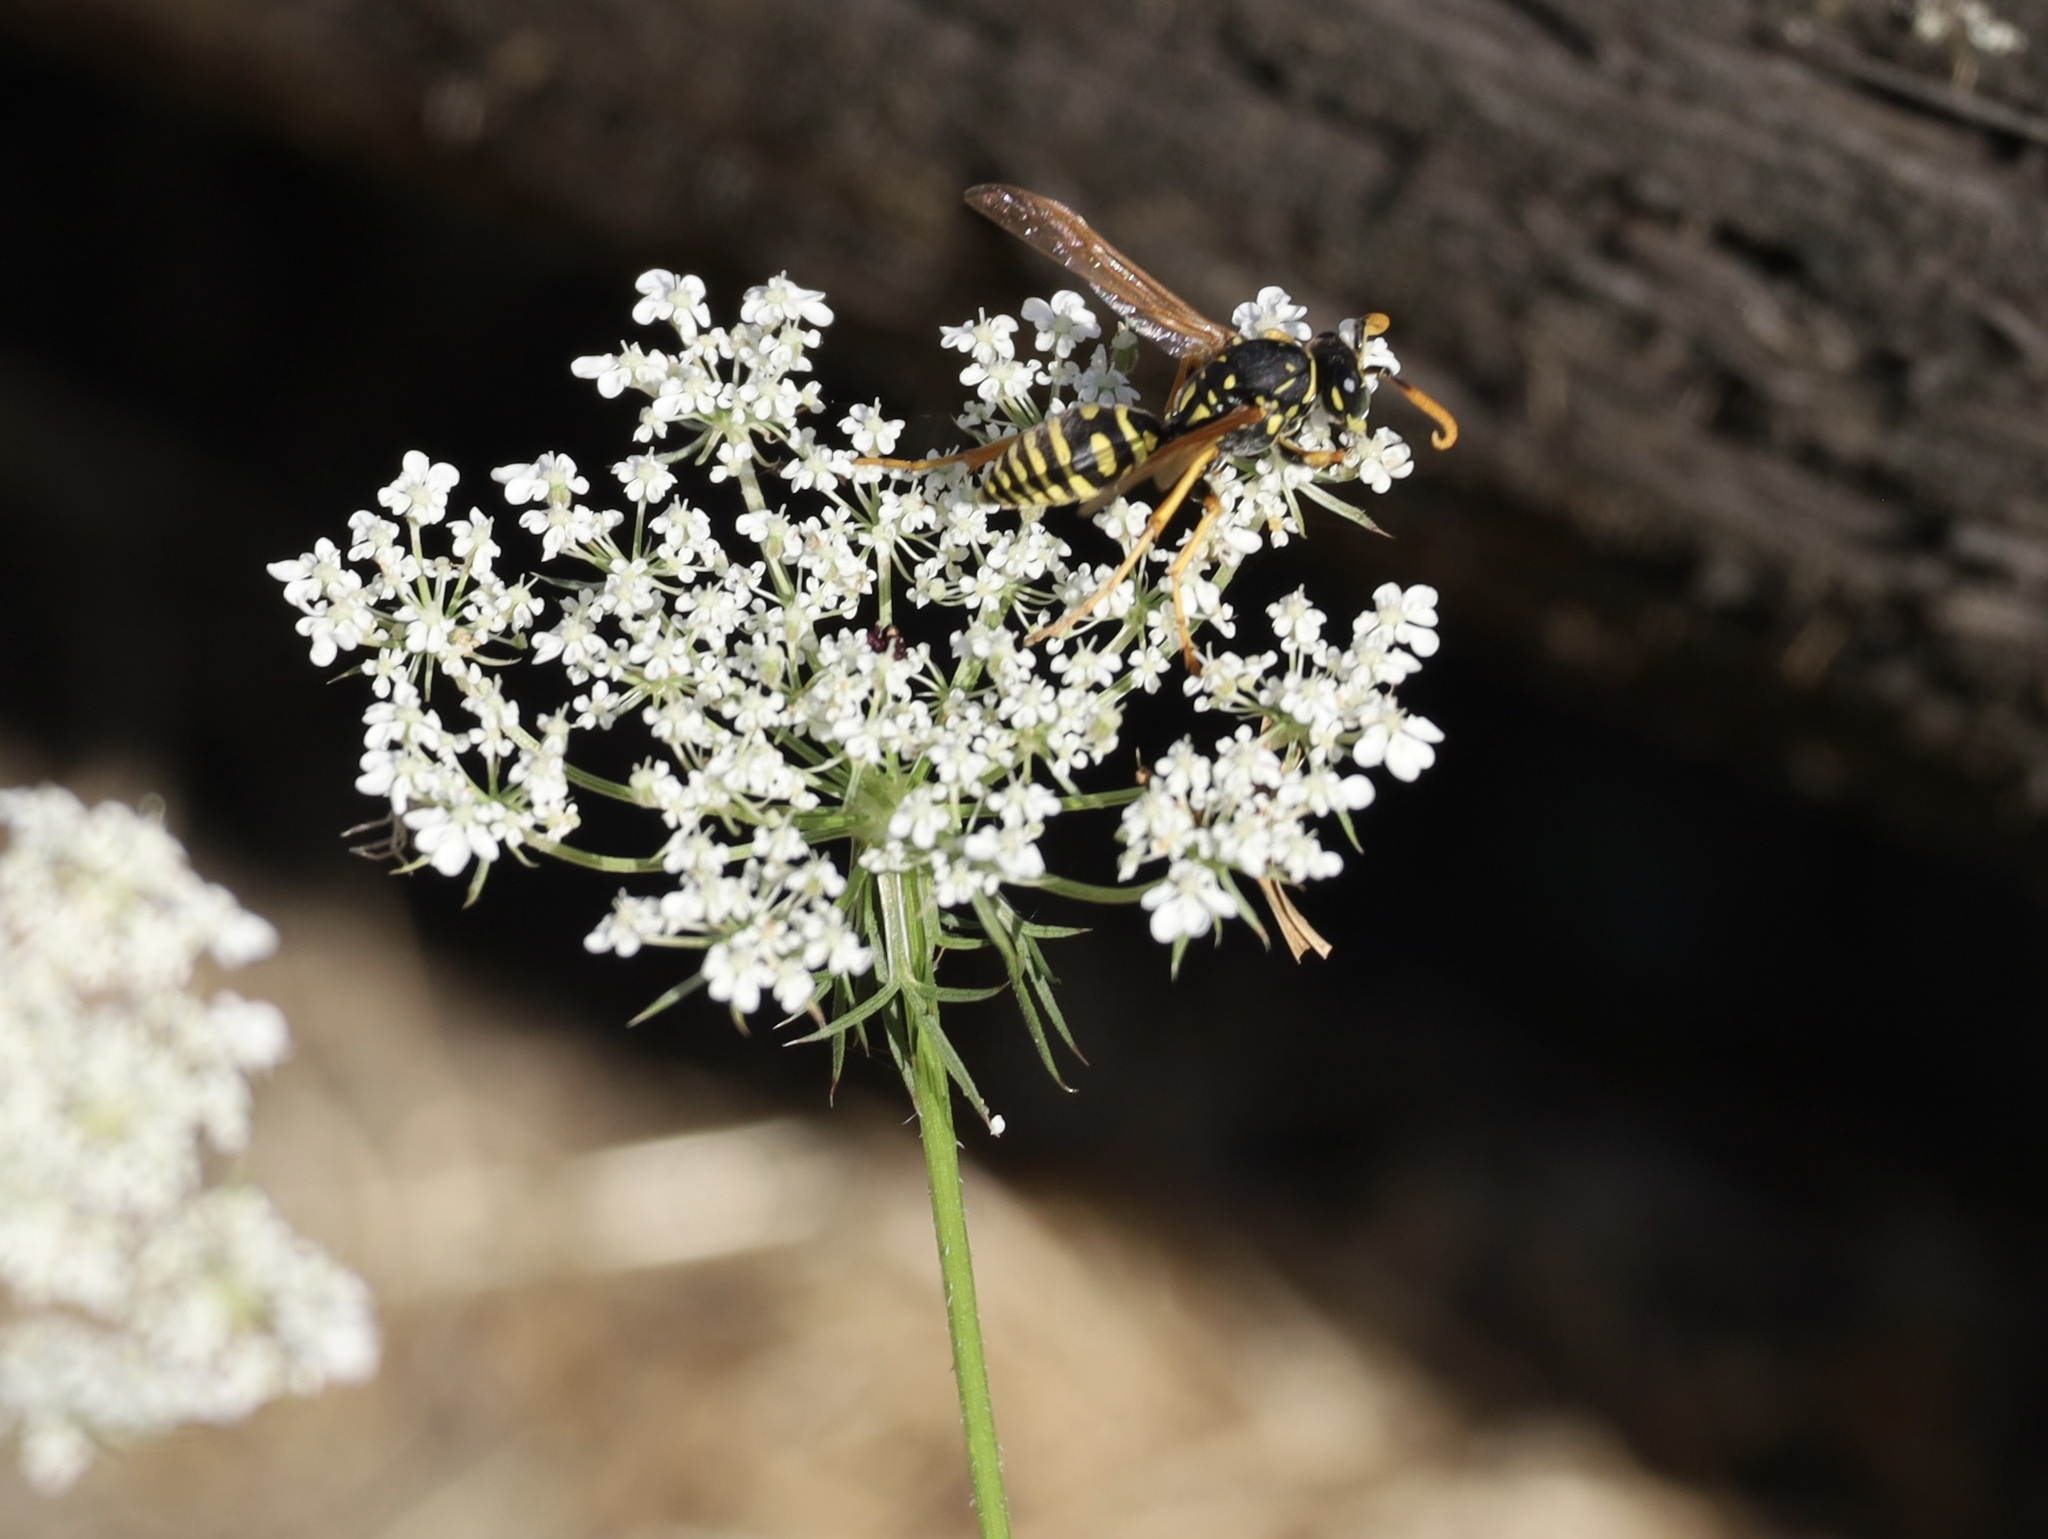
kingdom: Animalia
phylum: Arthropoda
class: Insecta
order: Hymenoptera
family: Eumenidae
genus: Polistes
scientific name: Polistes dominula
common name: Paper wasp
